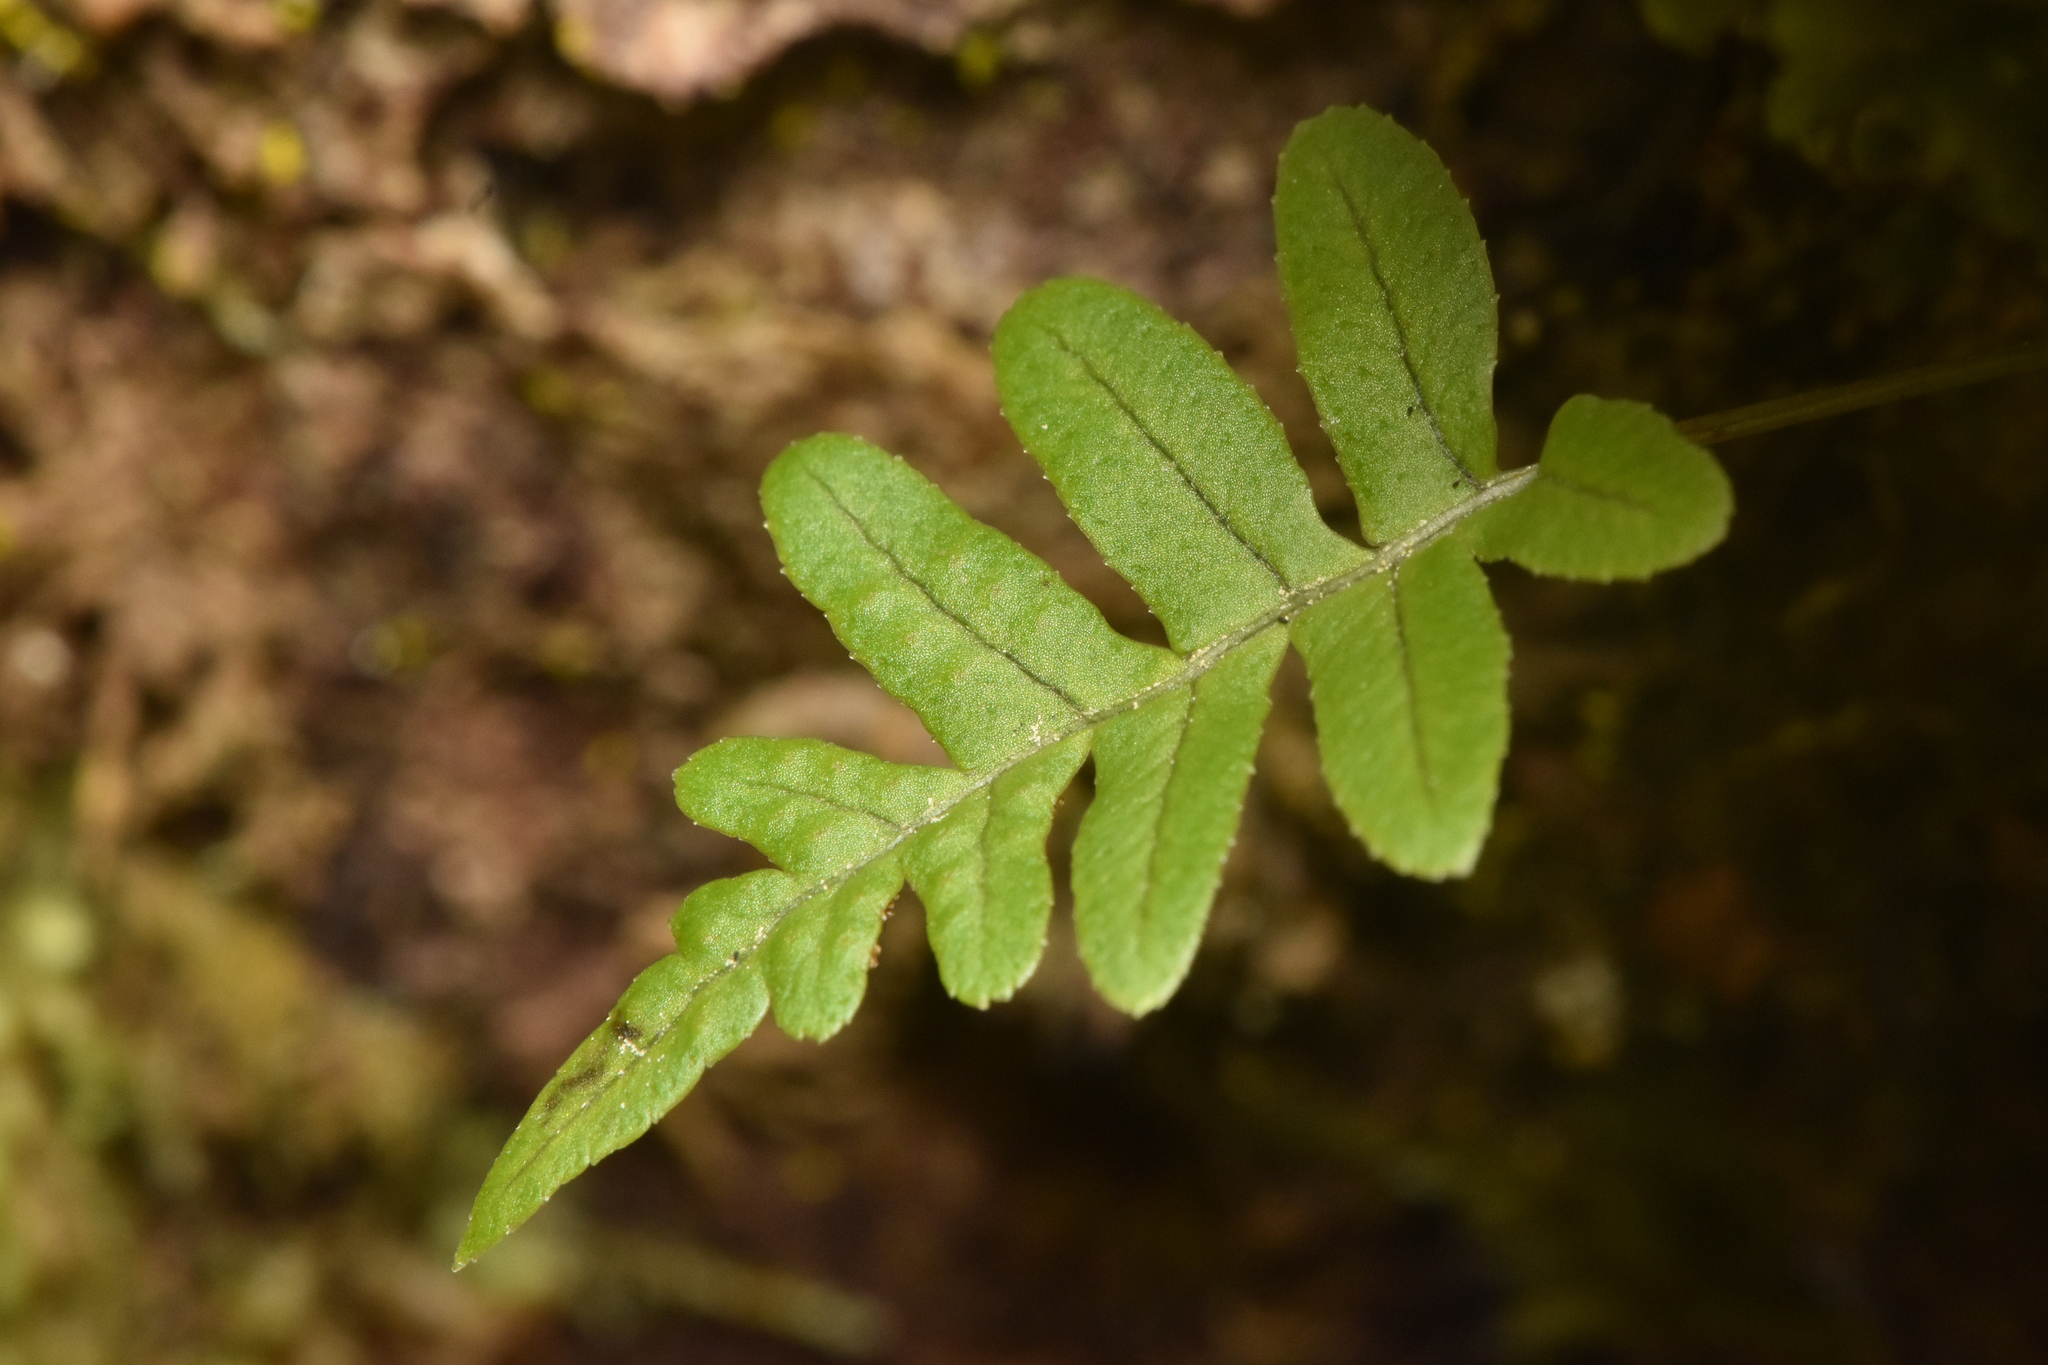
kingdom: Plantae
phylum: Tracheophyta
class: Polypodiopsida
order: Polypodiales
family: Polypodiaceae
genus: Polypodium
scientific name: Polypodium glycyrrhiza
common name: Licorice fern
